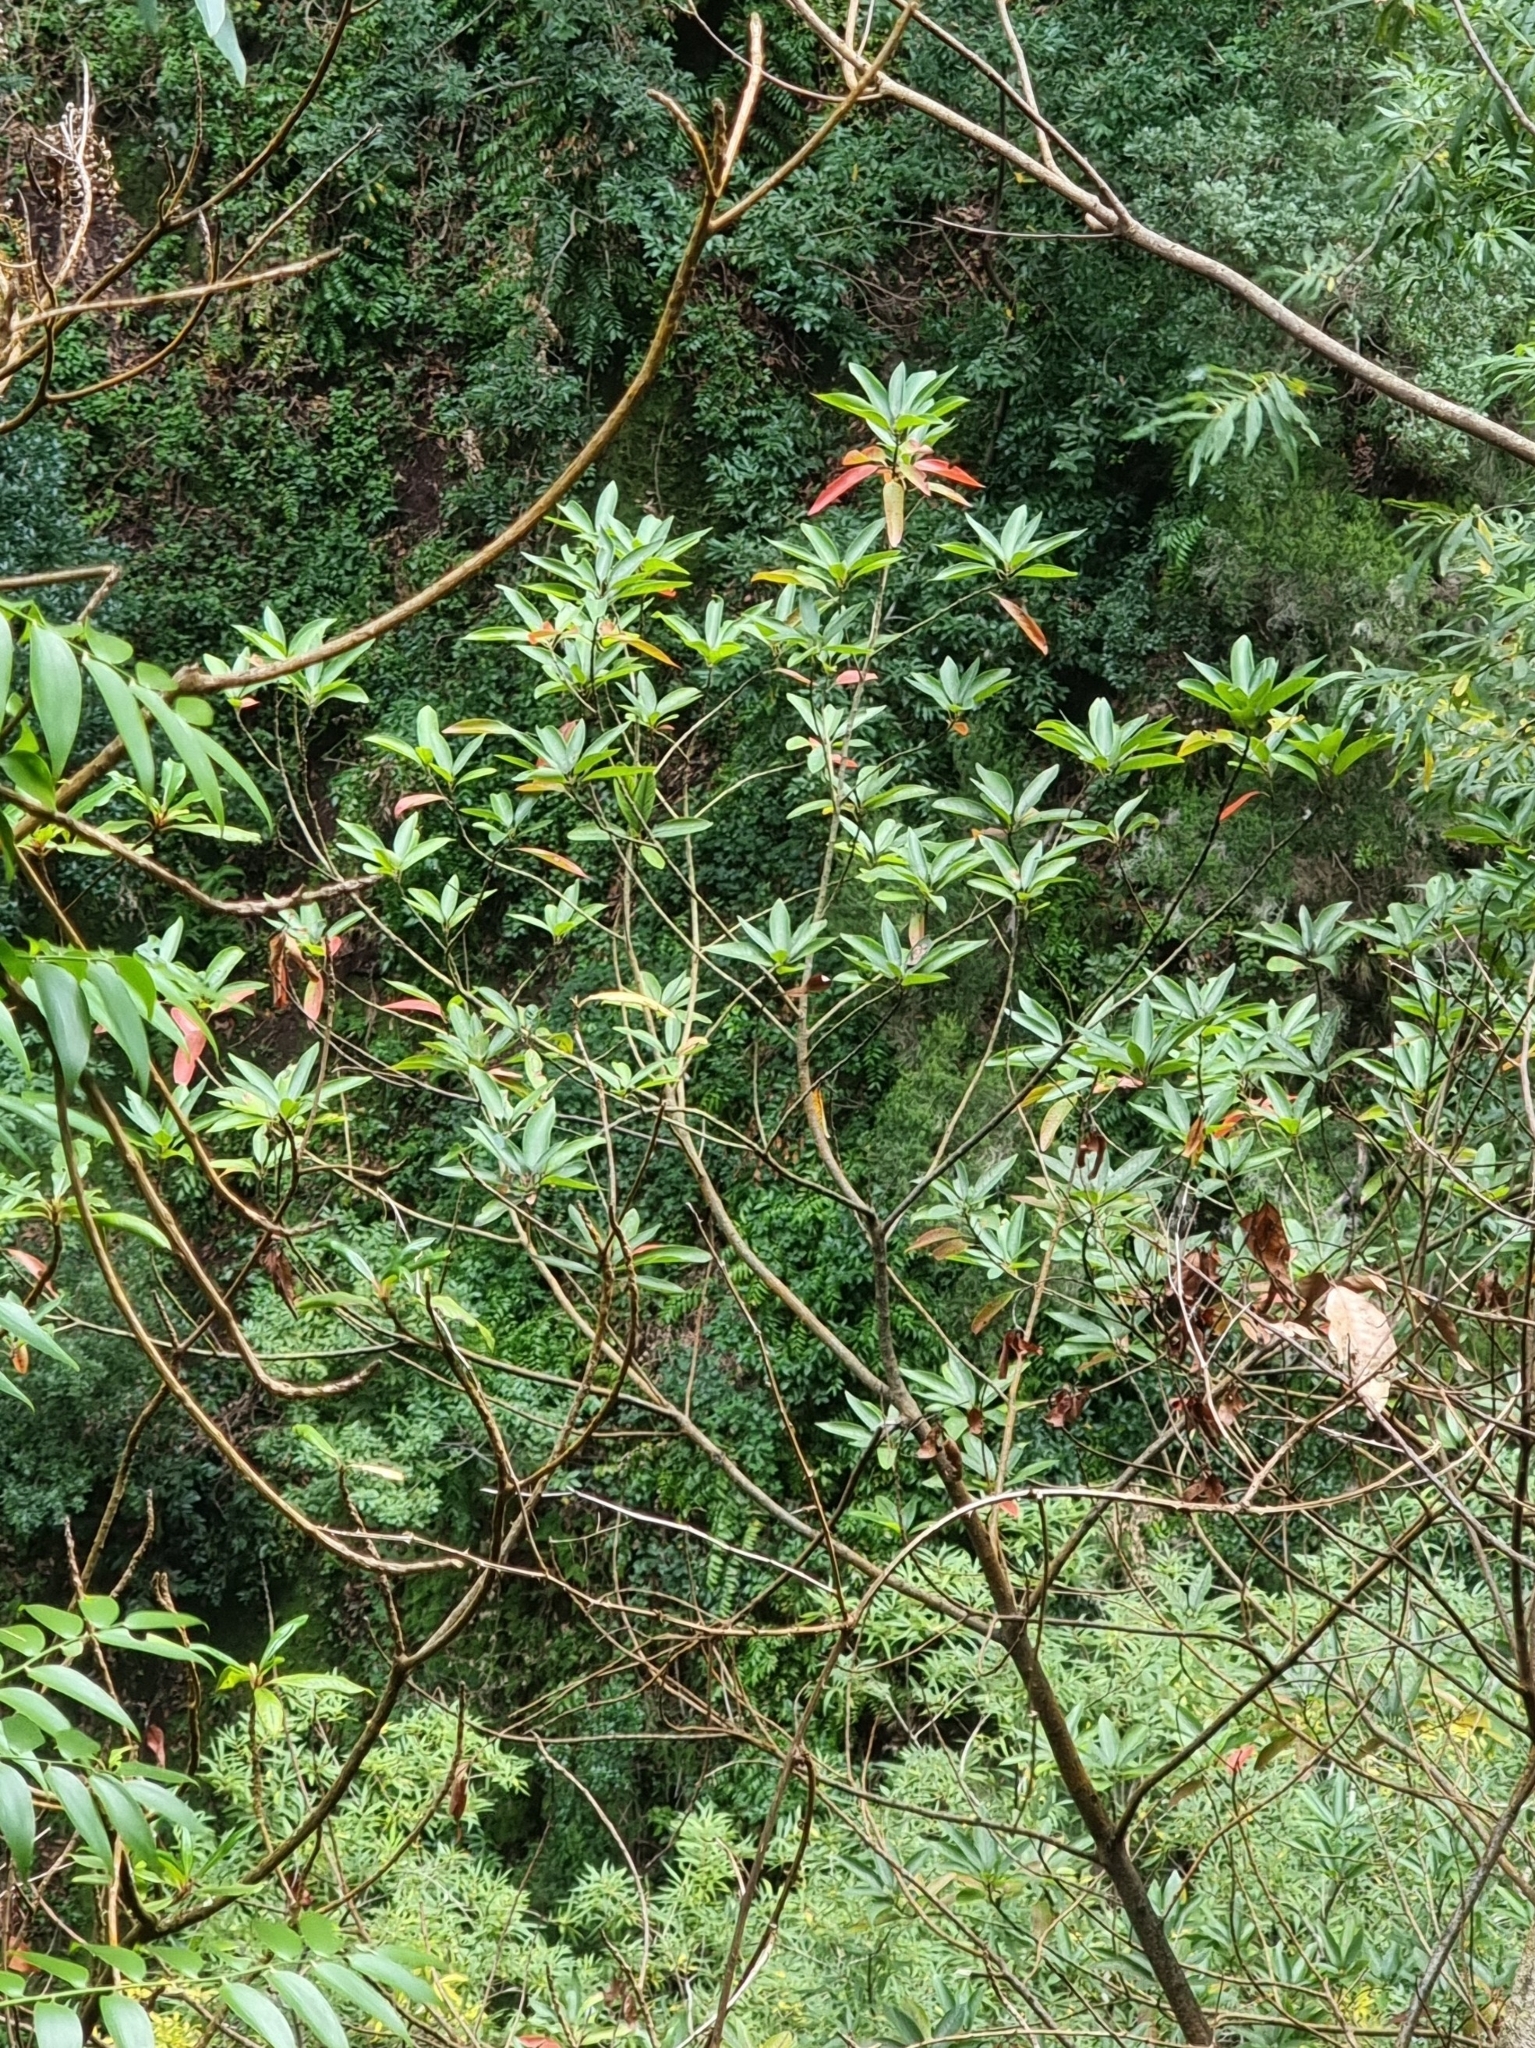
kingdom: Plantae
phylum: Tracheophyta
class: Magnoliopsida
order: Laurales
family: Lauraceae
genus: Persea
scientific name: Persea indica
